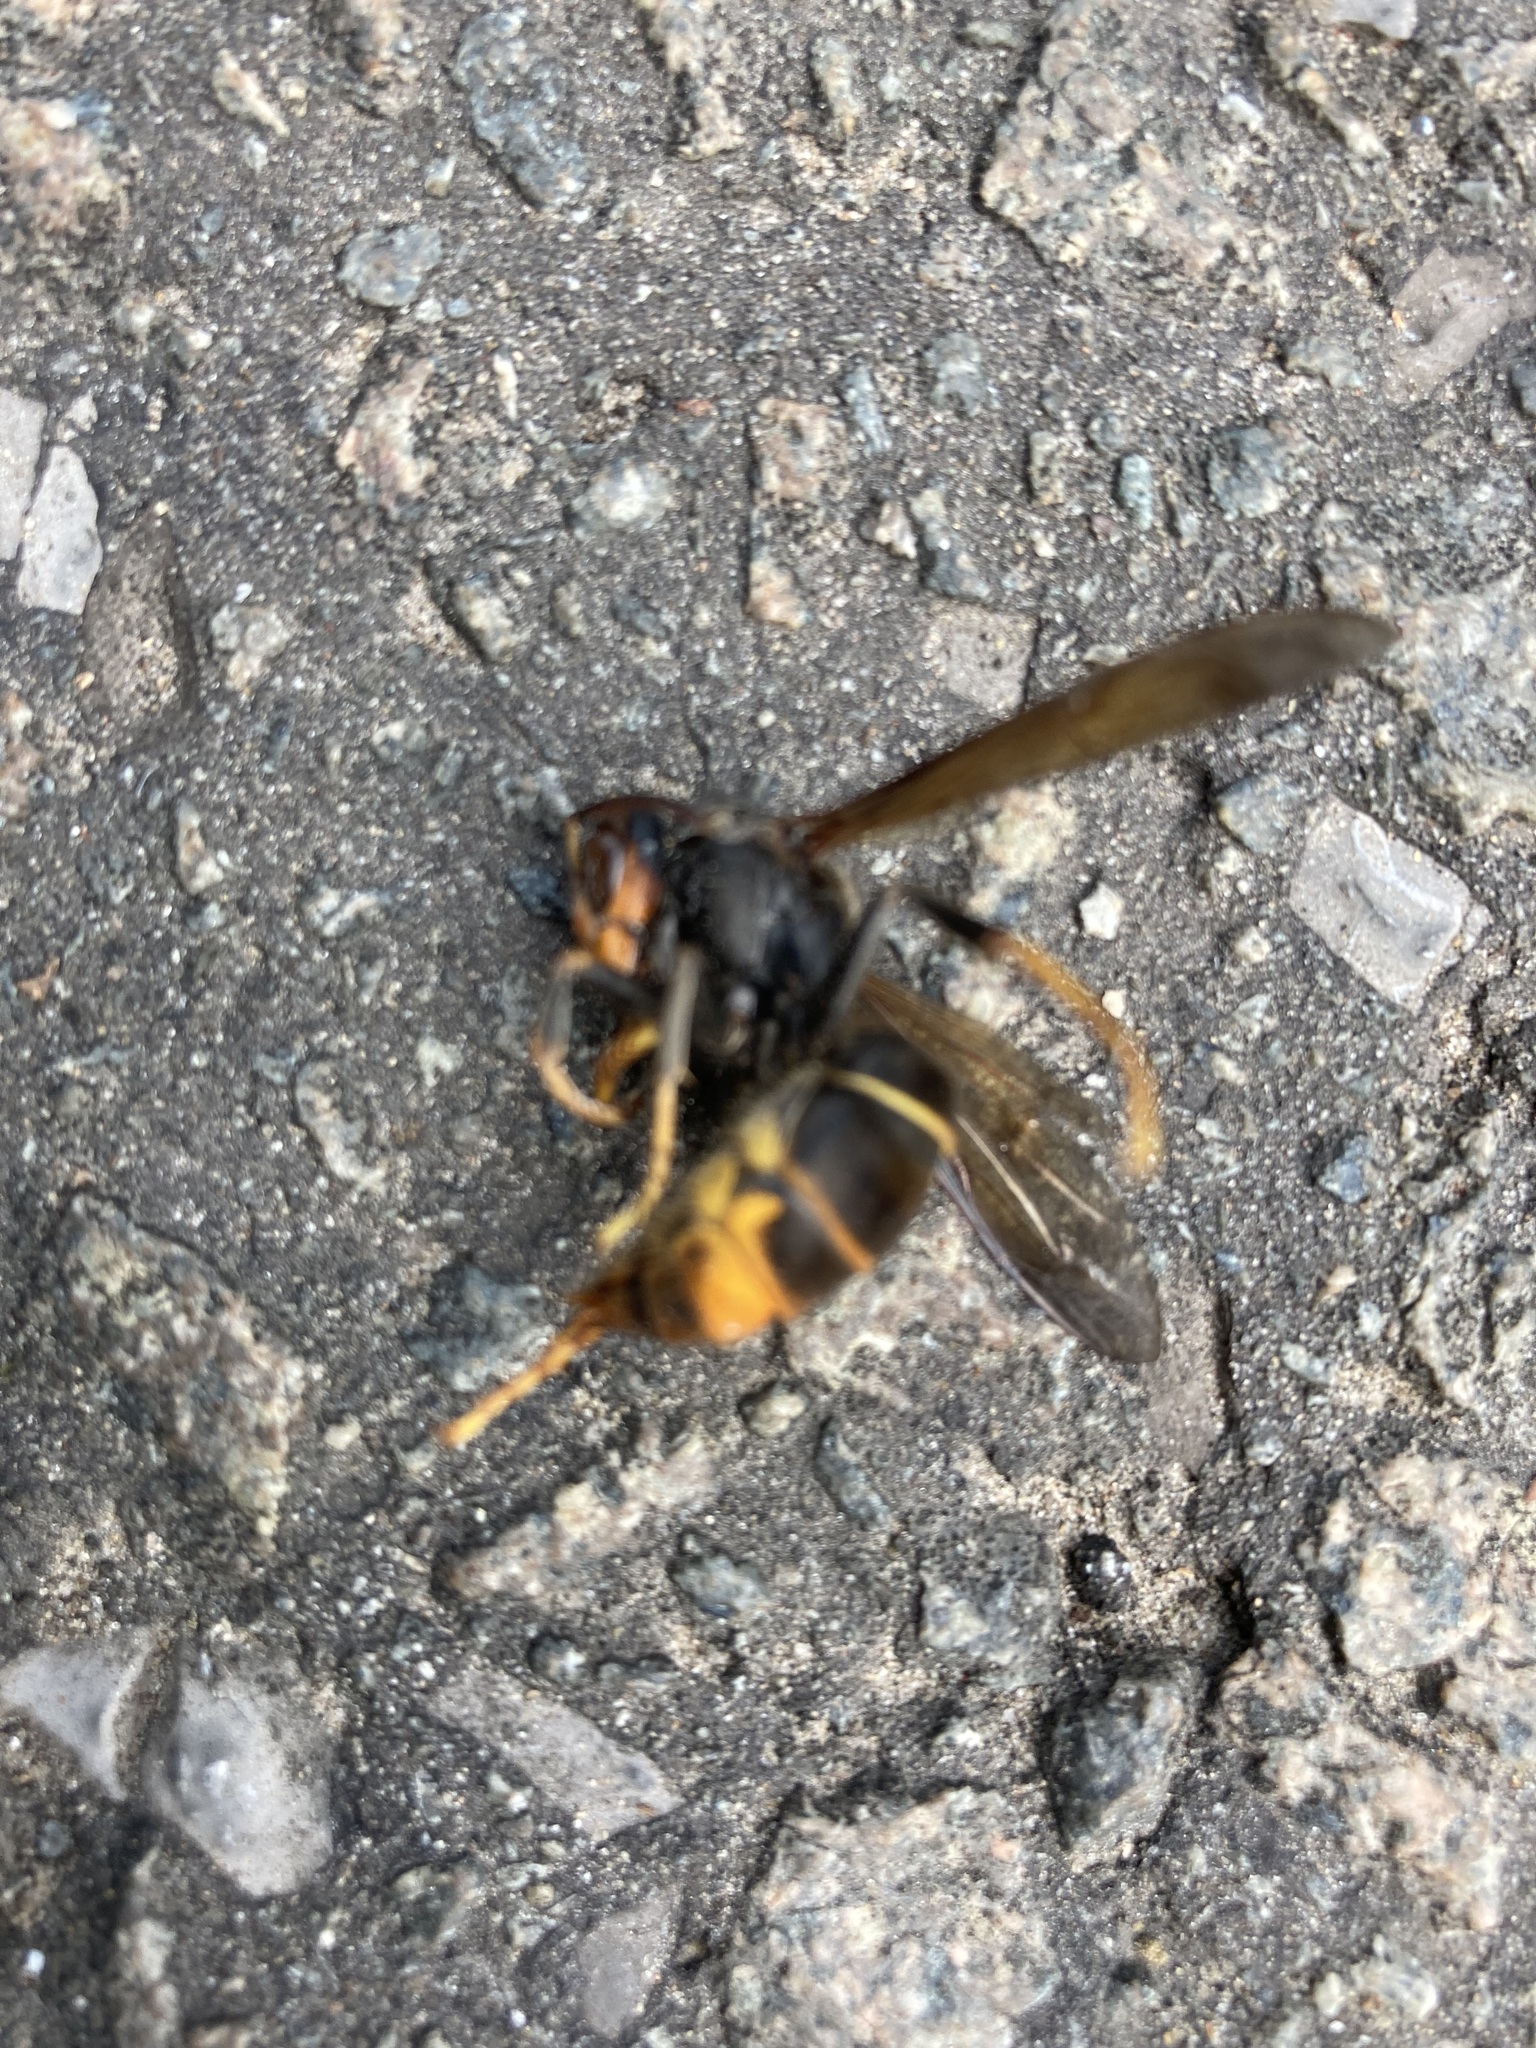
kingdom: Animalia
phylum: Arthropoda
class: Insecta
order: Hymenoptera
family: Vespidae
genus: Vespa
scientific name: Vespa velutina
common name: Asian hornet
